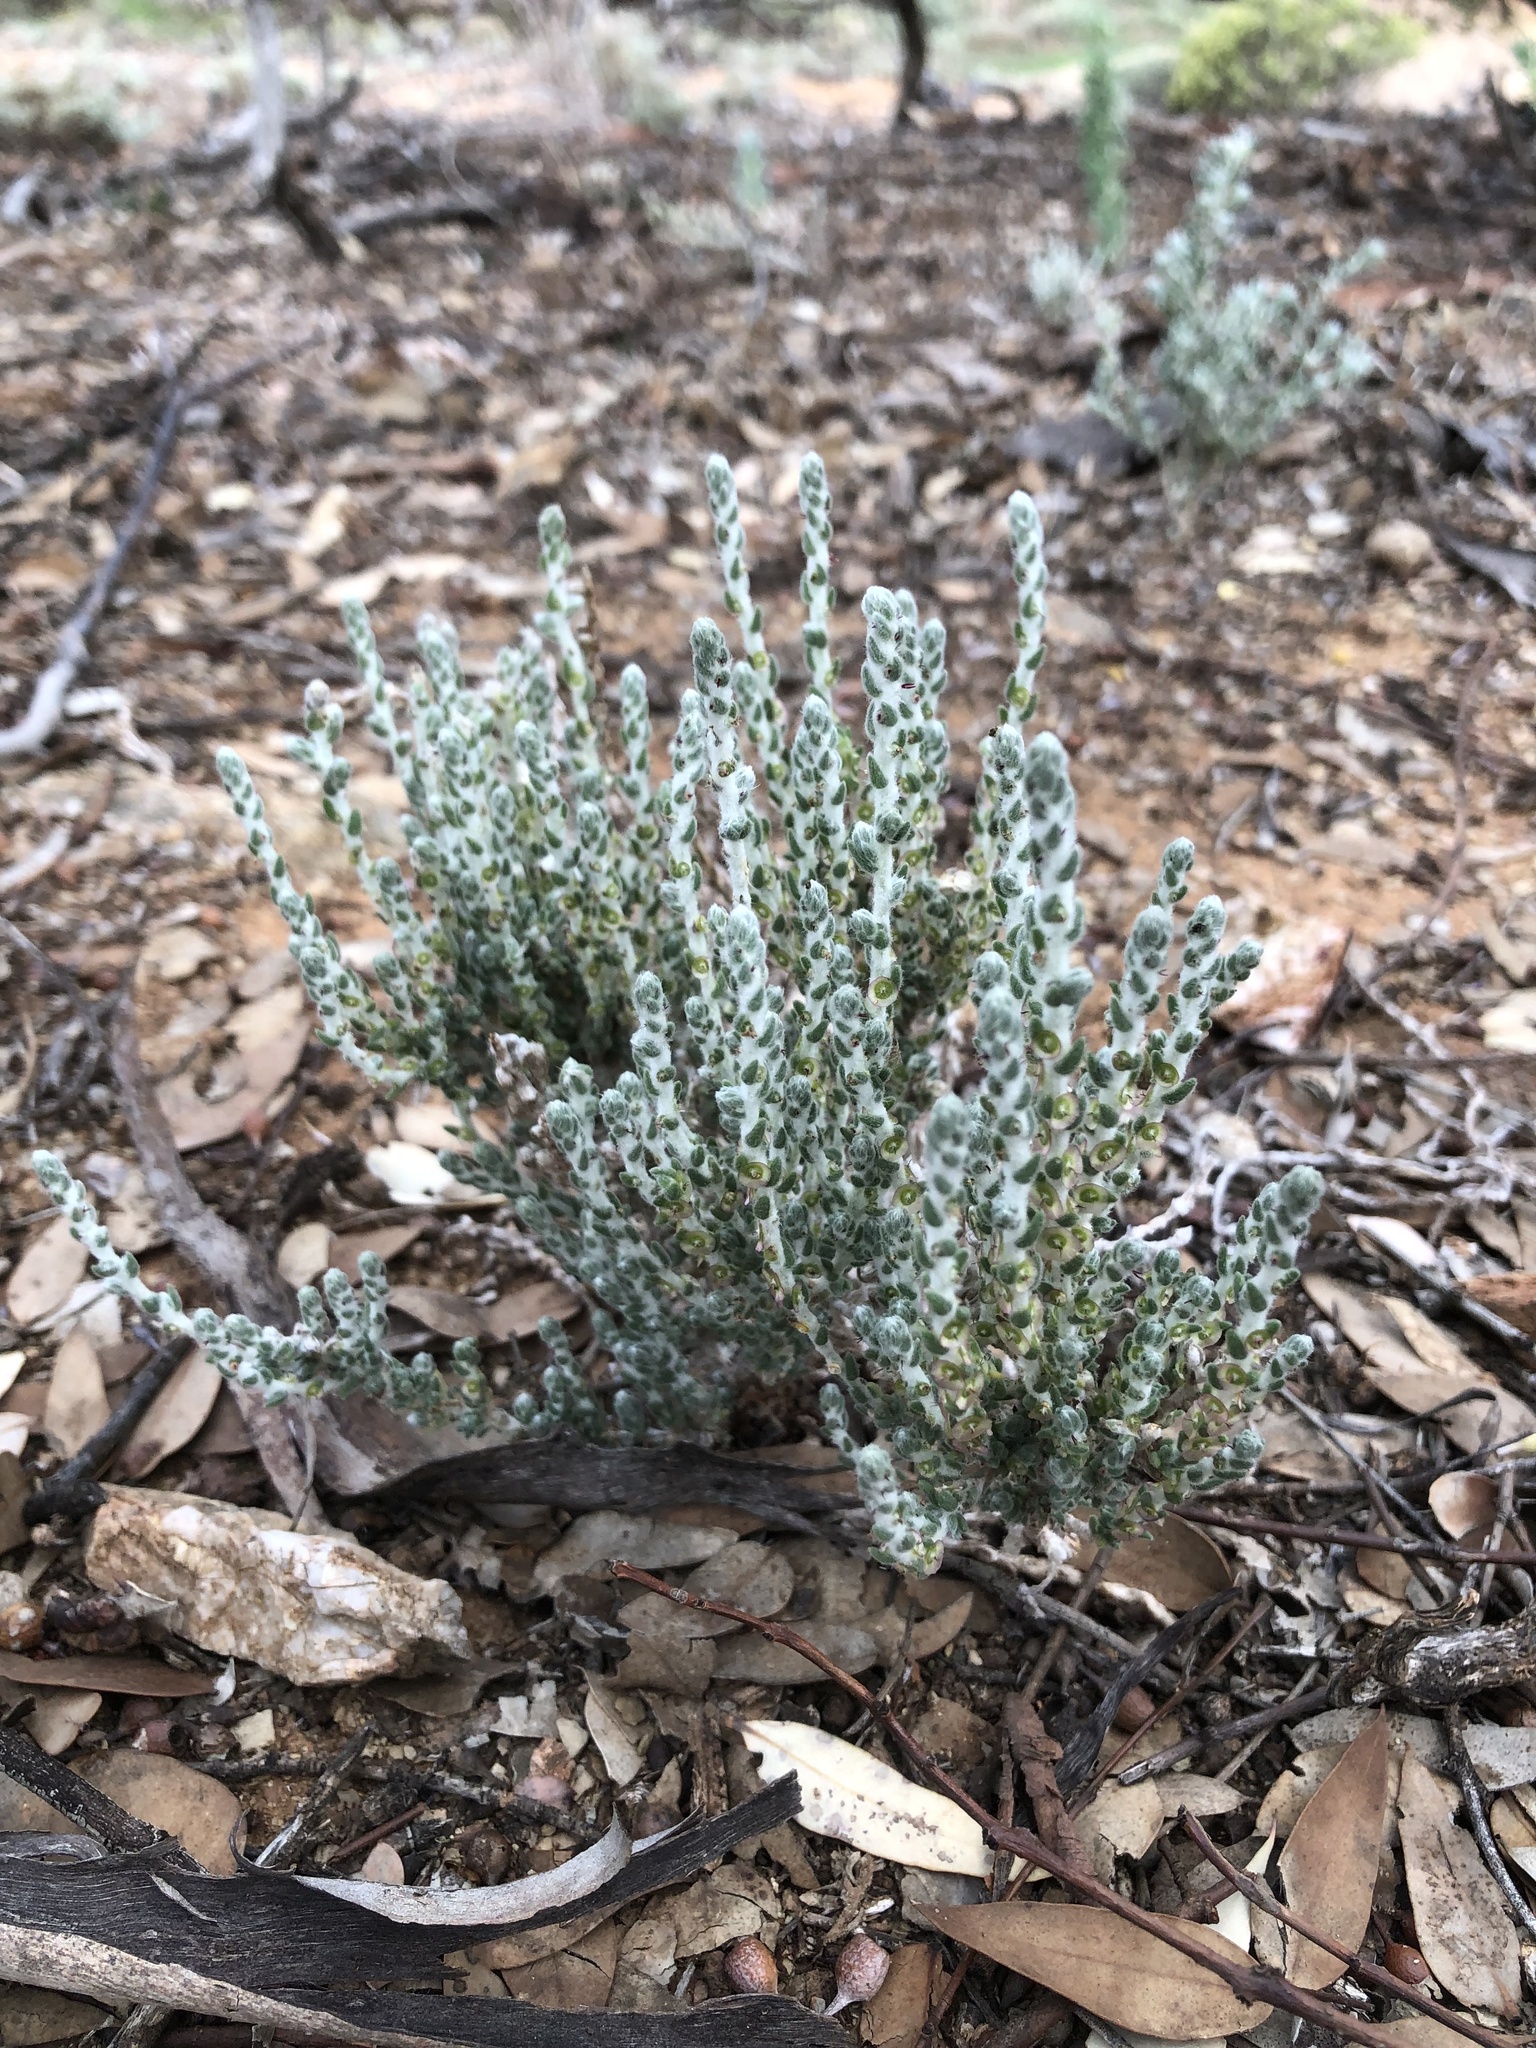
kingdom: Plantae
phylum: Tracheophyta
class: Magnoliopsida
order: Caryophyllales
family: Amaranthaceae
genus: Maireana
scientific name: Maireana ovata
